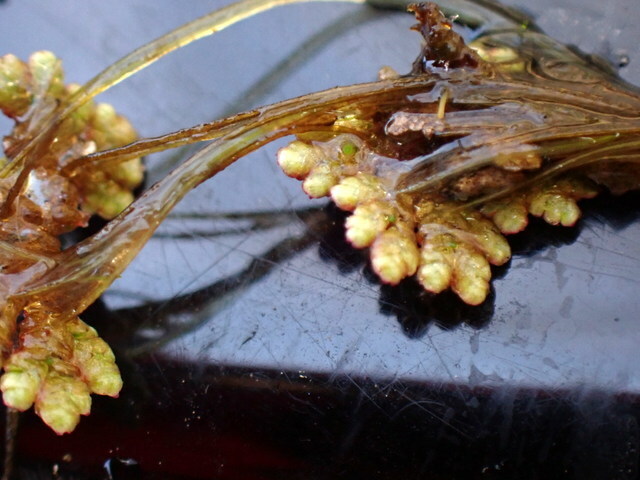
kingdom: Plantae
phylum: Tracheophyta
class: Polypodiopsida
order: Salviniales
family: Salviniaceae
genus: Azolla
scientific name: Azolla filiculoides
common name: Water fern
